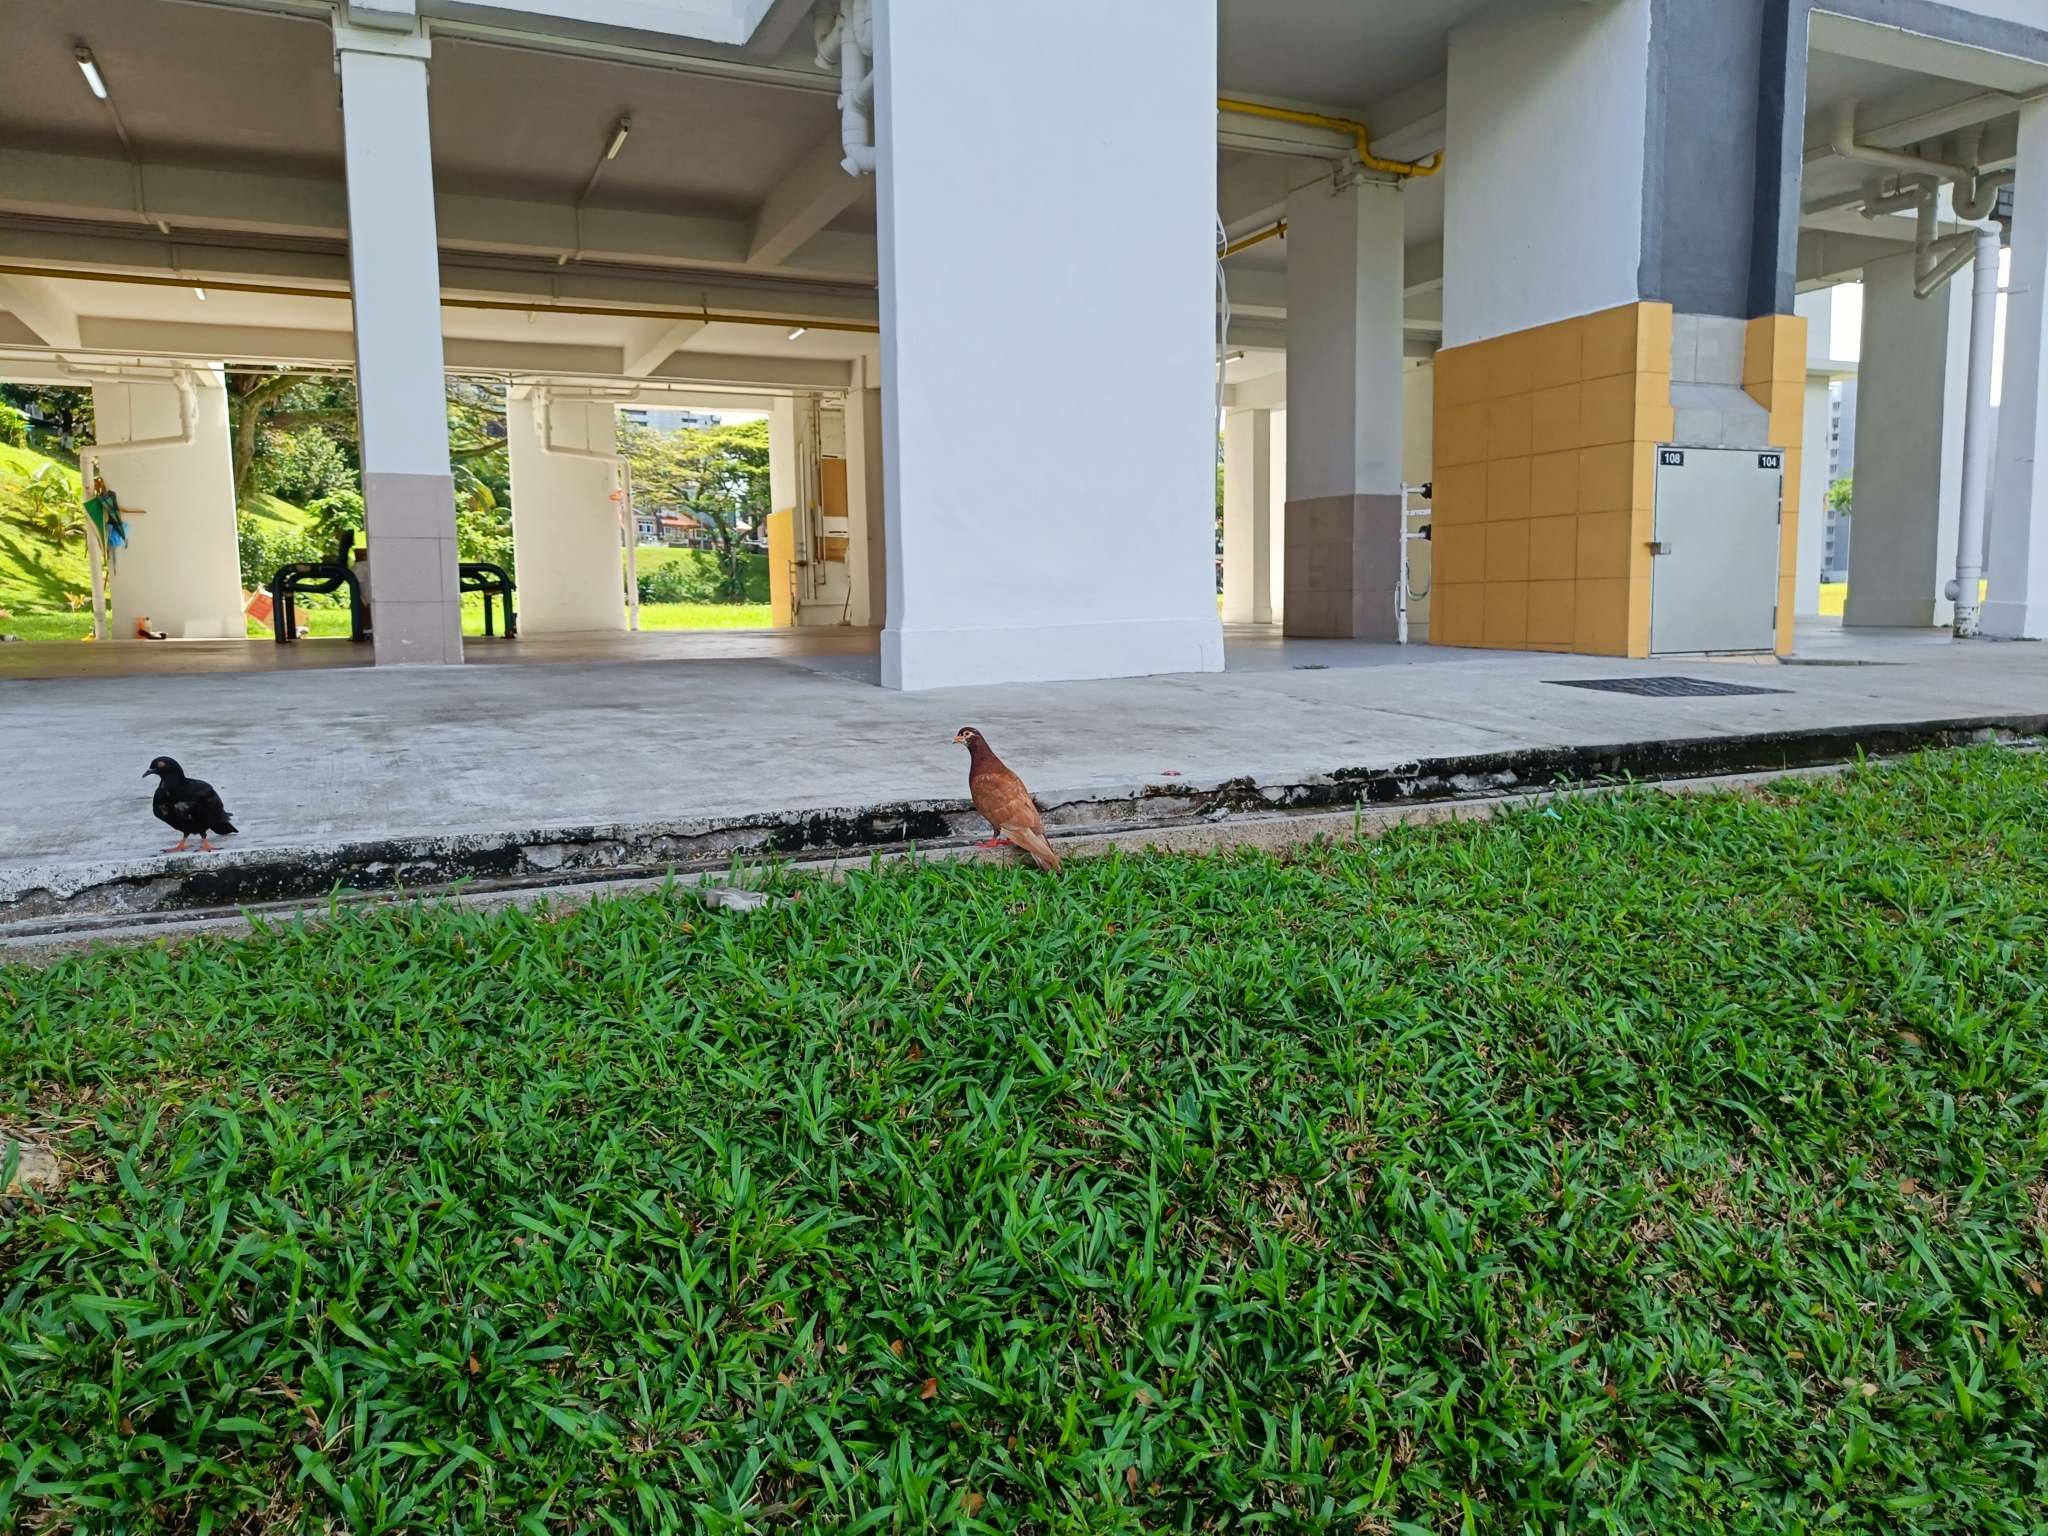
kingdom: Animalia
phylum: Chordata
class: Aves
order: Columbiformes
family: Columbidae
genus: Columba
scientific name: Columba livia
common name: Rock pigeon
